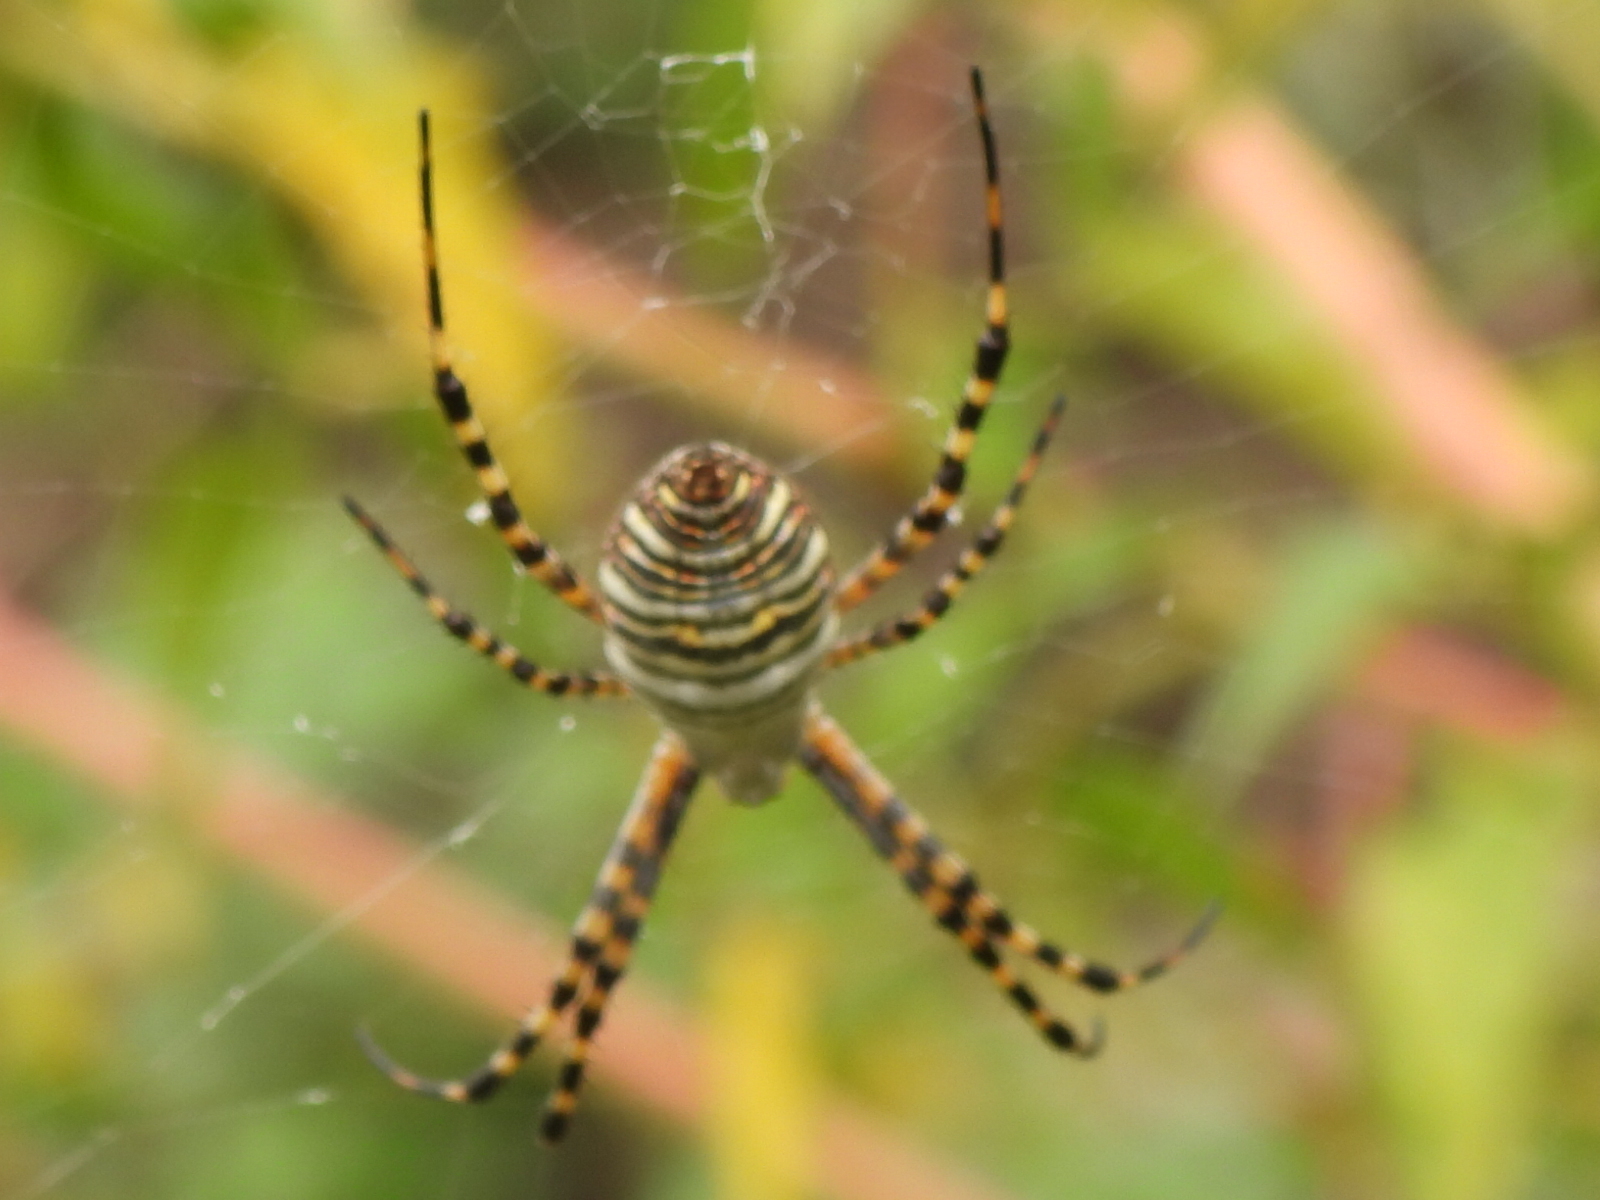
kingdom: Animalia
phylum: Arthropoda
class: Arachnida
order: Araneae
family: Araneidae
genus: Argiope
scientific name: Argiope trifasciata
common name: Banded garden spider
